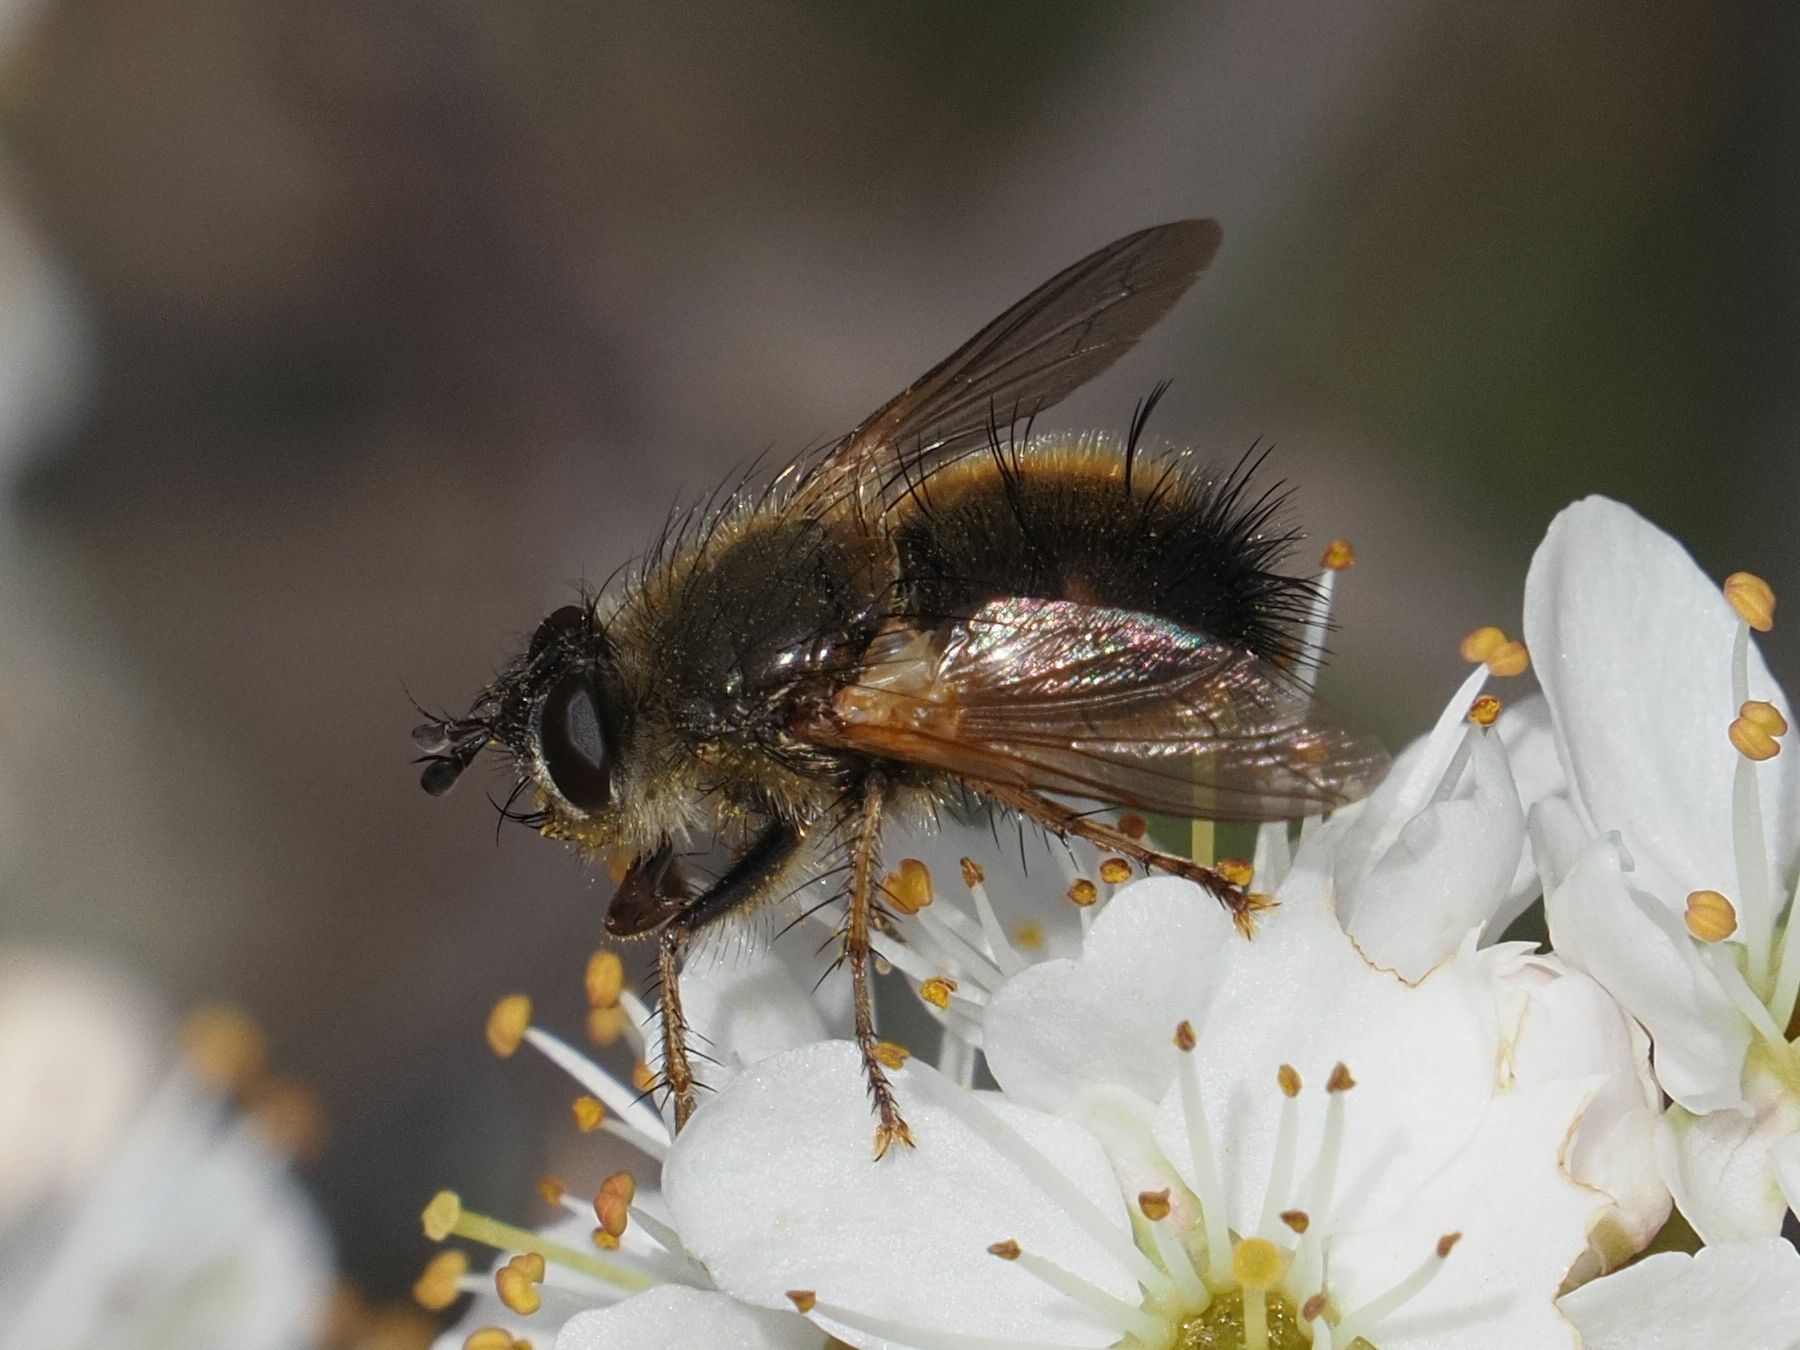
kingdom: Animalia
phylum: Arthropoda
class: Insecta
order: Diptera
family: Tachinidae
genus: Tachina
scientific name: Tachina lurida
